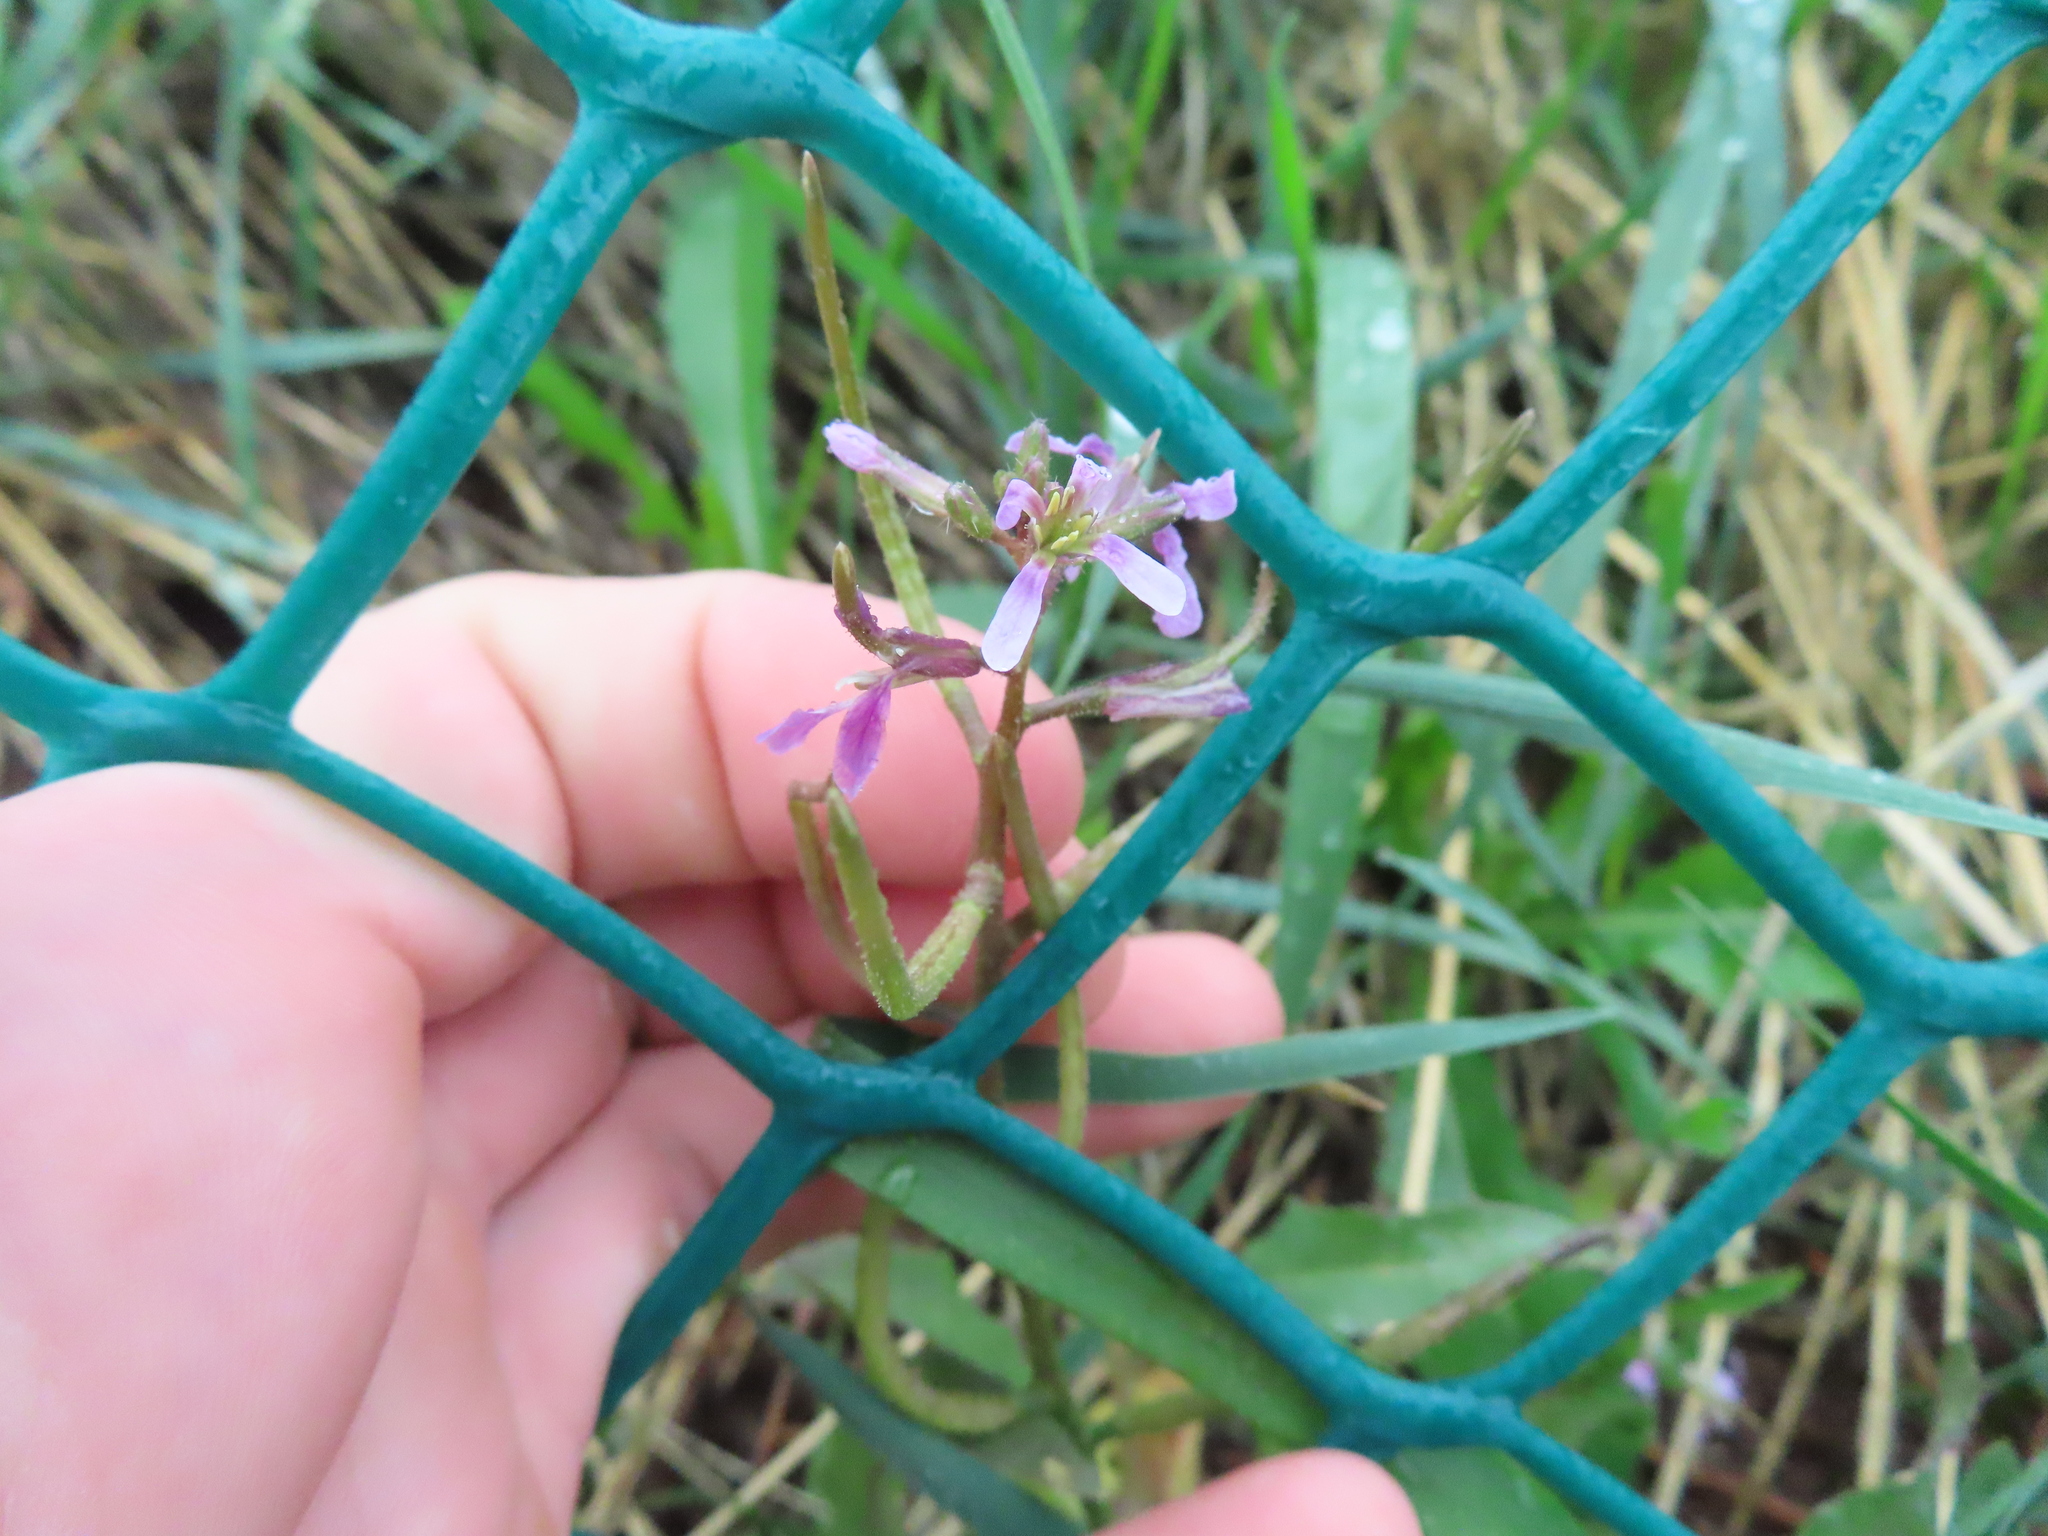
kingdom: Plantae
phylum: Tracheophyta
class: Magnoliopsida
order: Brassicales
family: Brassicaceae
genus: Chorispora
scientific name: Chorispora tenella
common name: Crossflower
